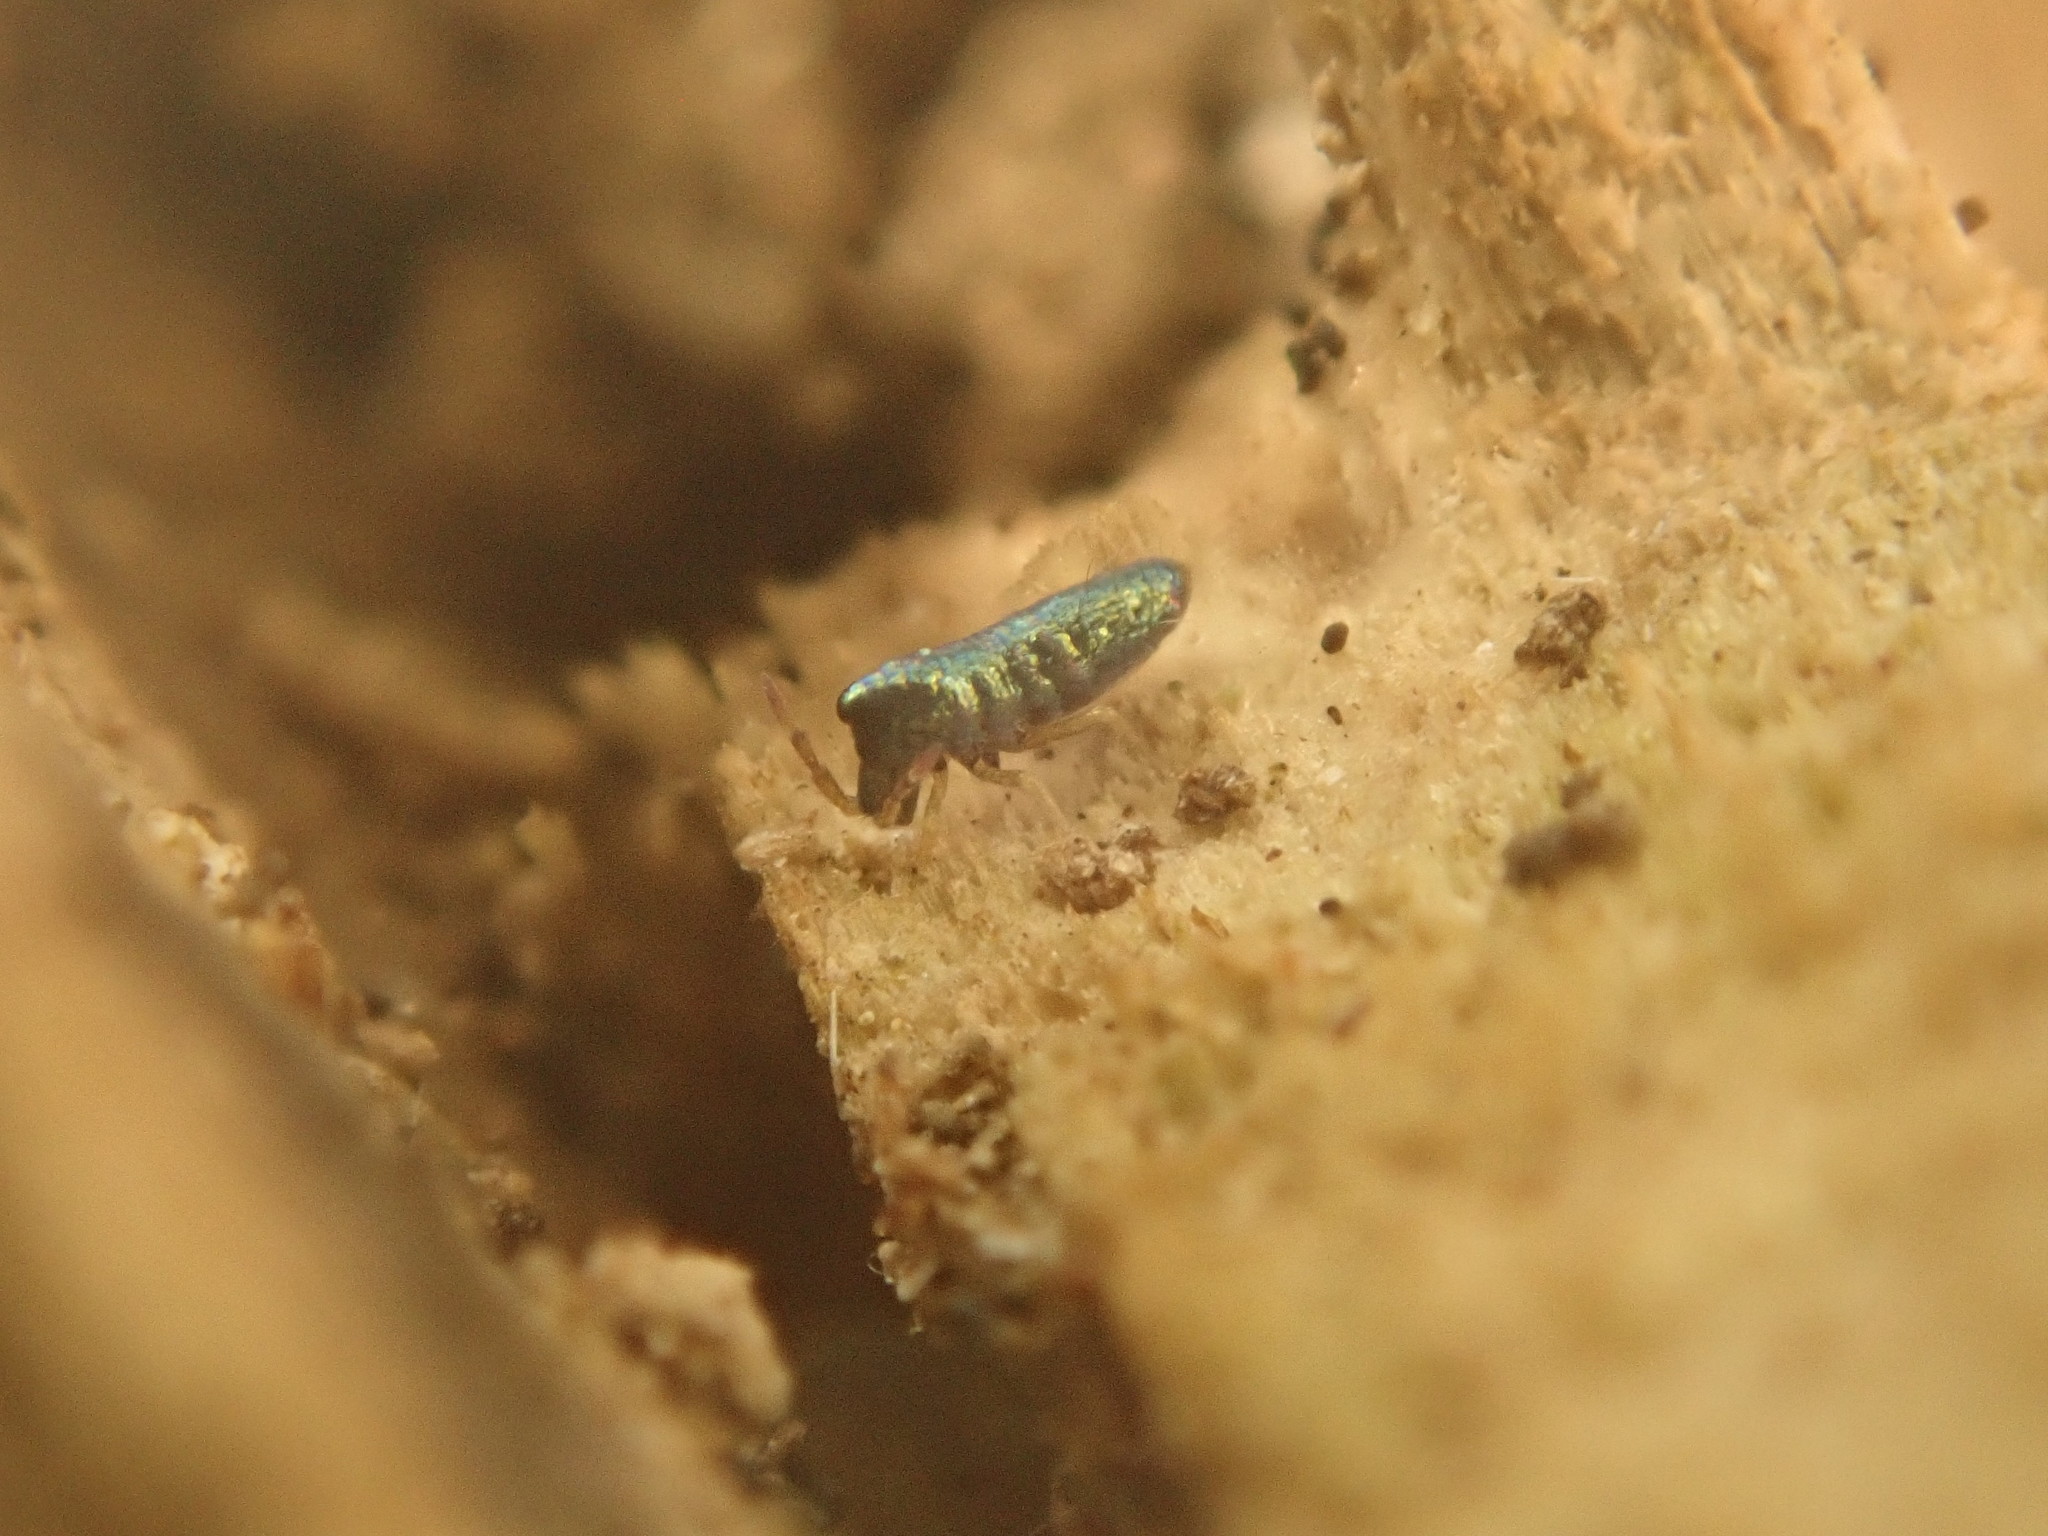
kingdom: Animalia
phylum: Arthropoda
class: Collembola
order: Entomobryomorpha
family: Entomobryidae
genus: Lepidocyrtus
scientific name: Lepidocyrtus paradoxus
